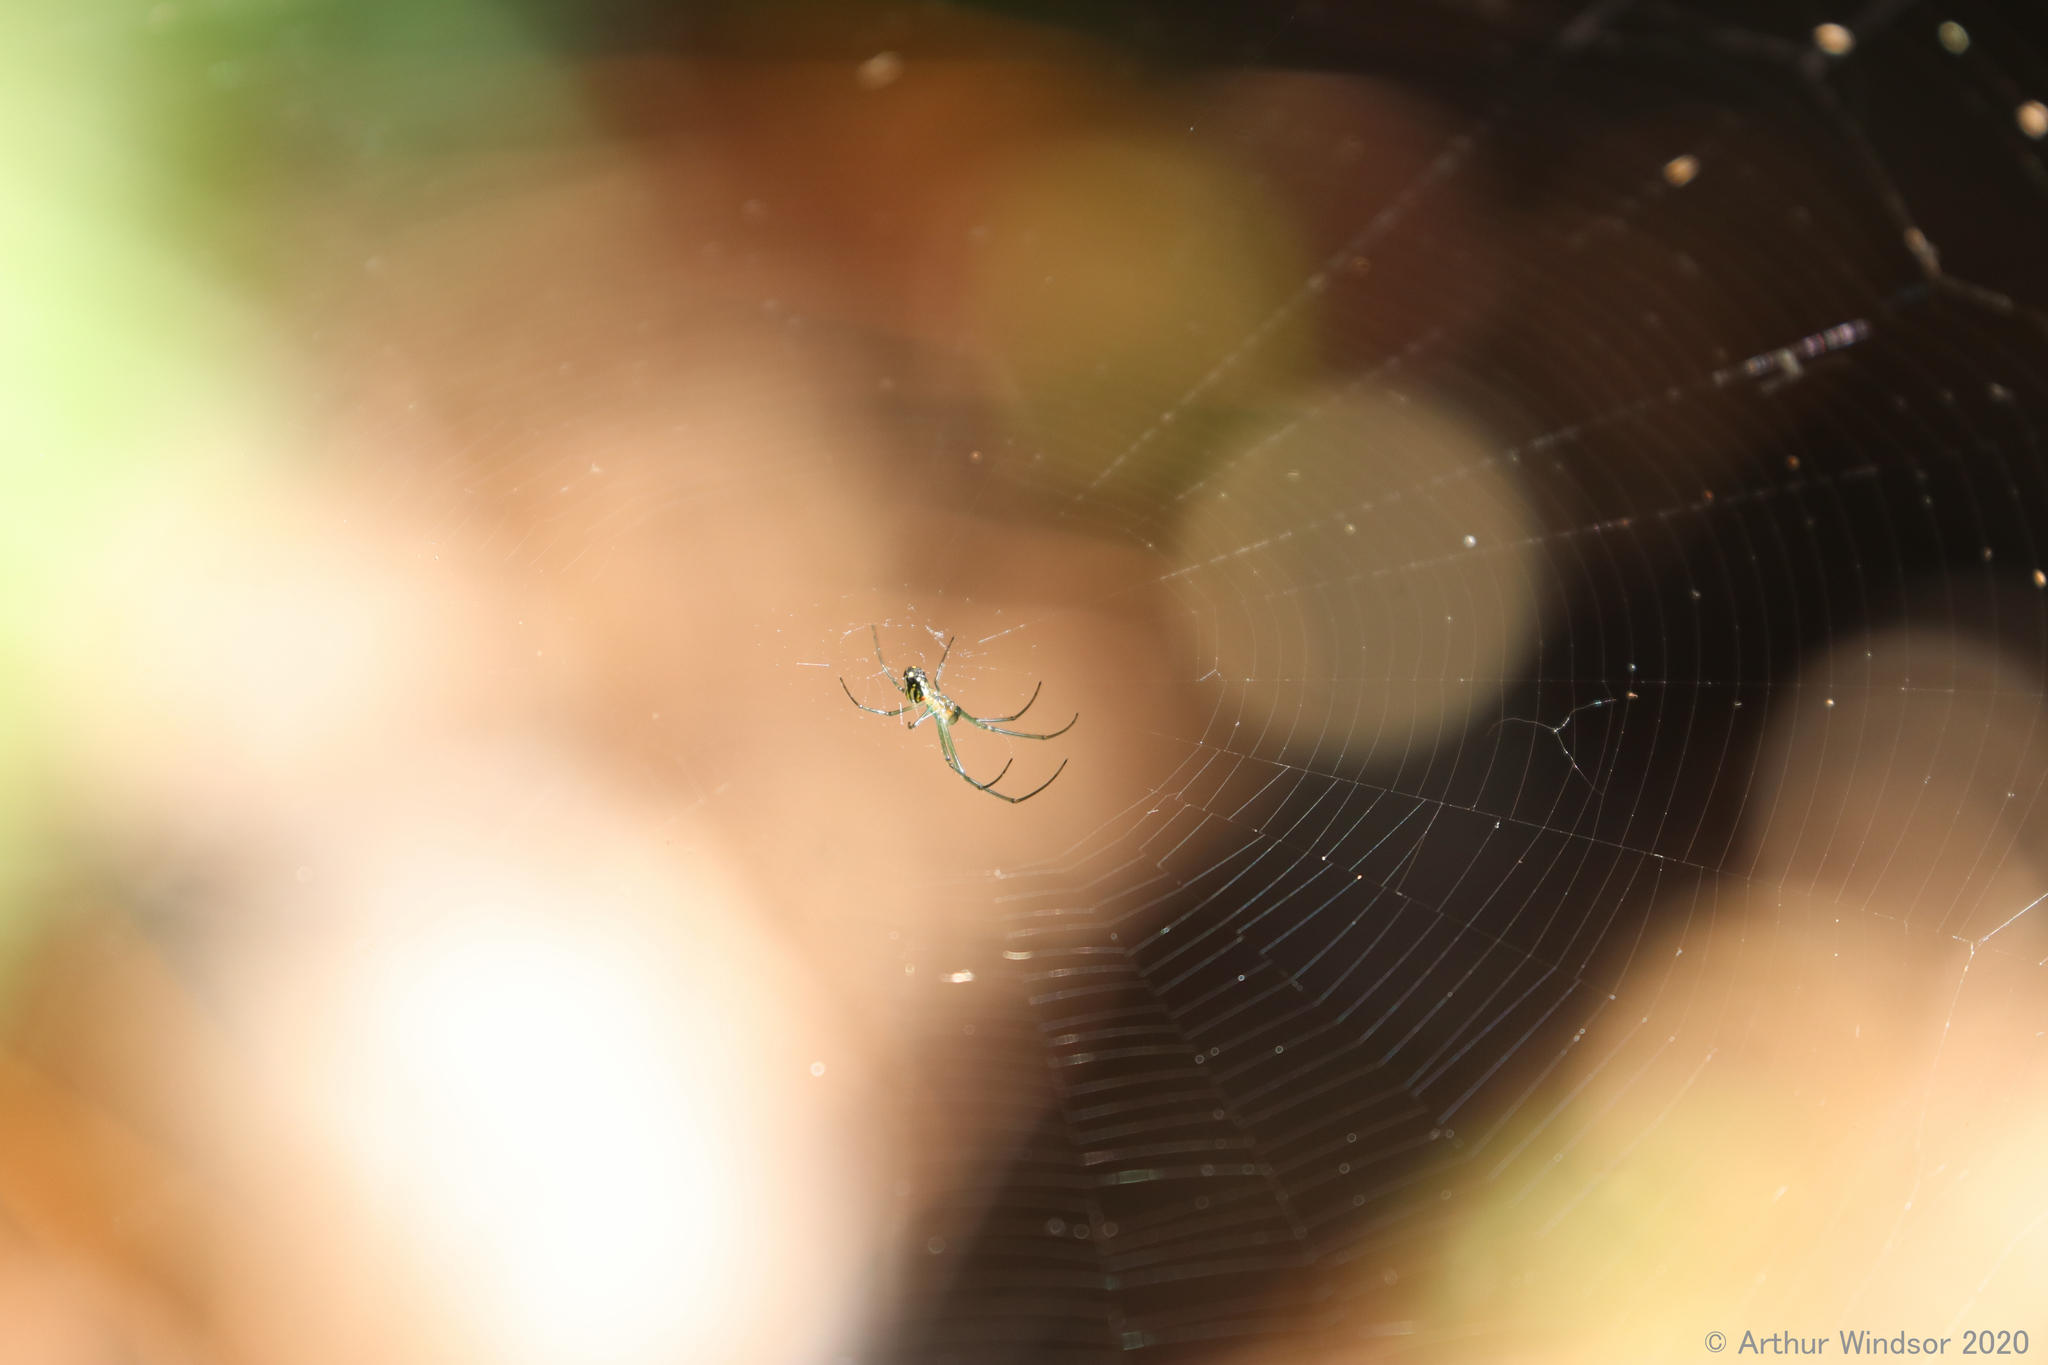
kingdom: Animalia
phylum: Arthropoda
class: Arachnida
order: Araneae
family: Tetragnathidae
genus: Leucauge
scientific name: Leucauge argyra
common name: Longjawed orb weavers
